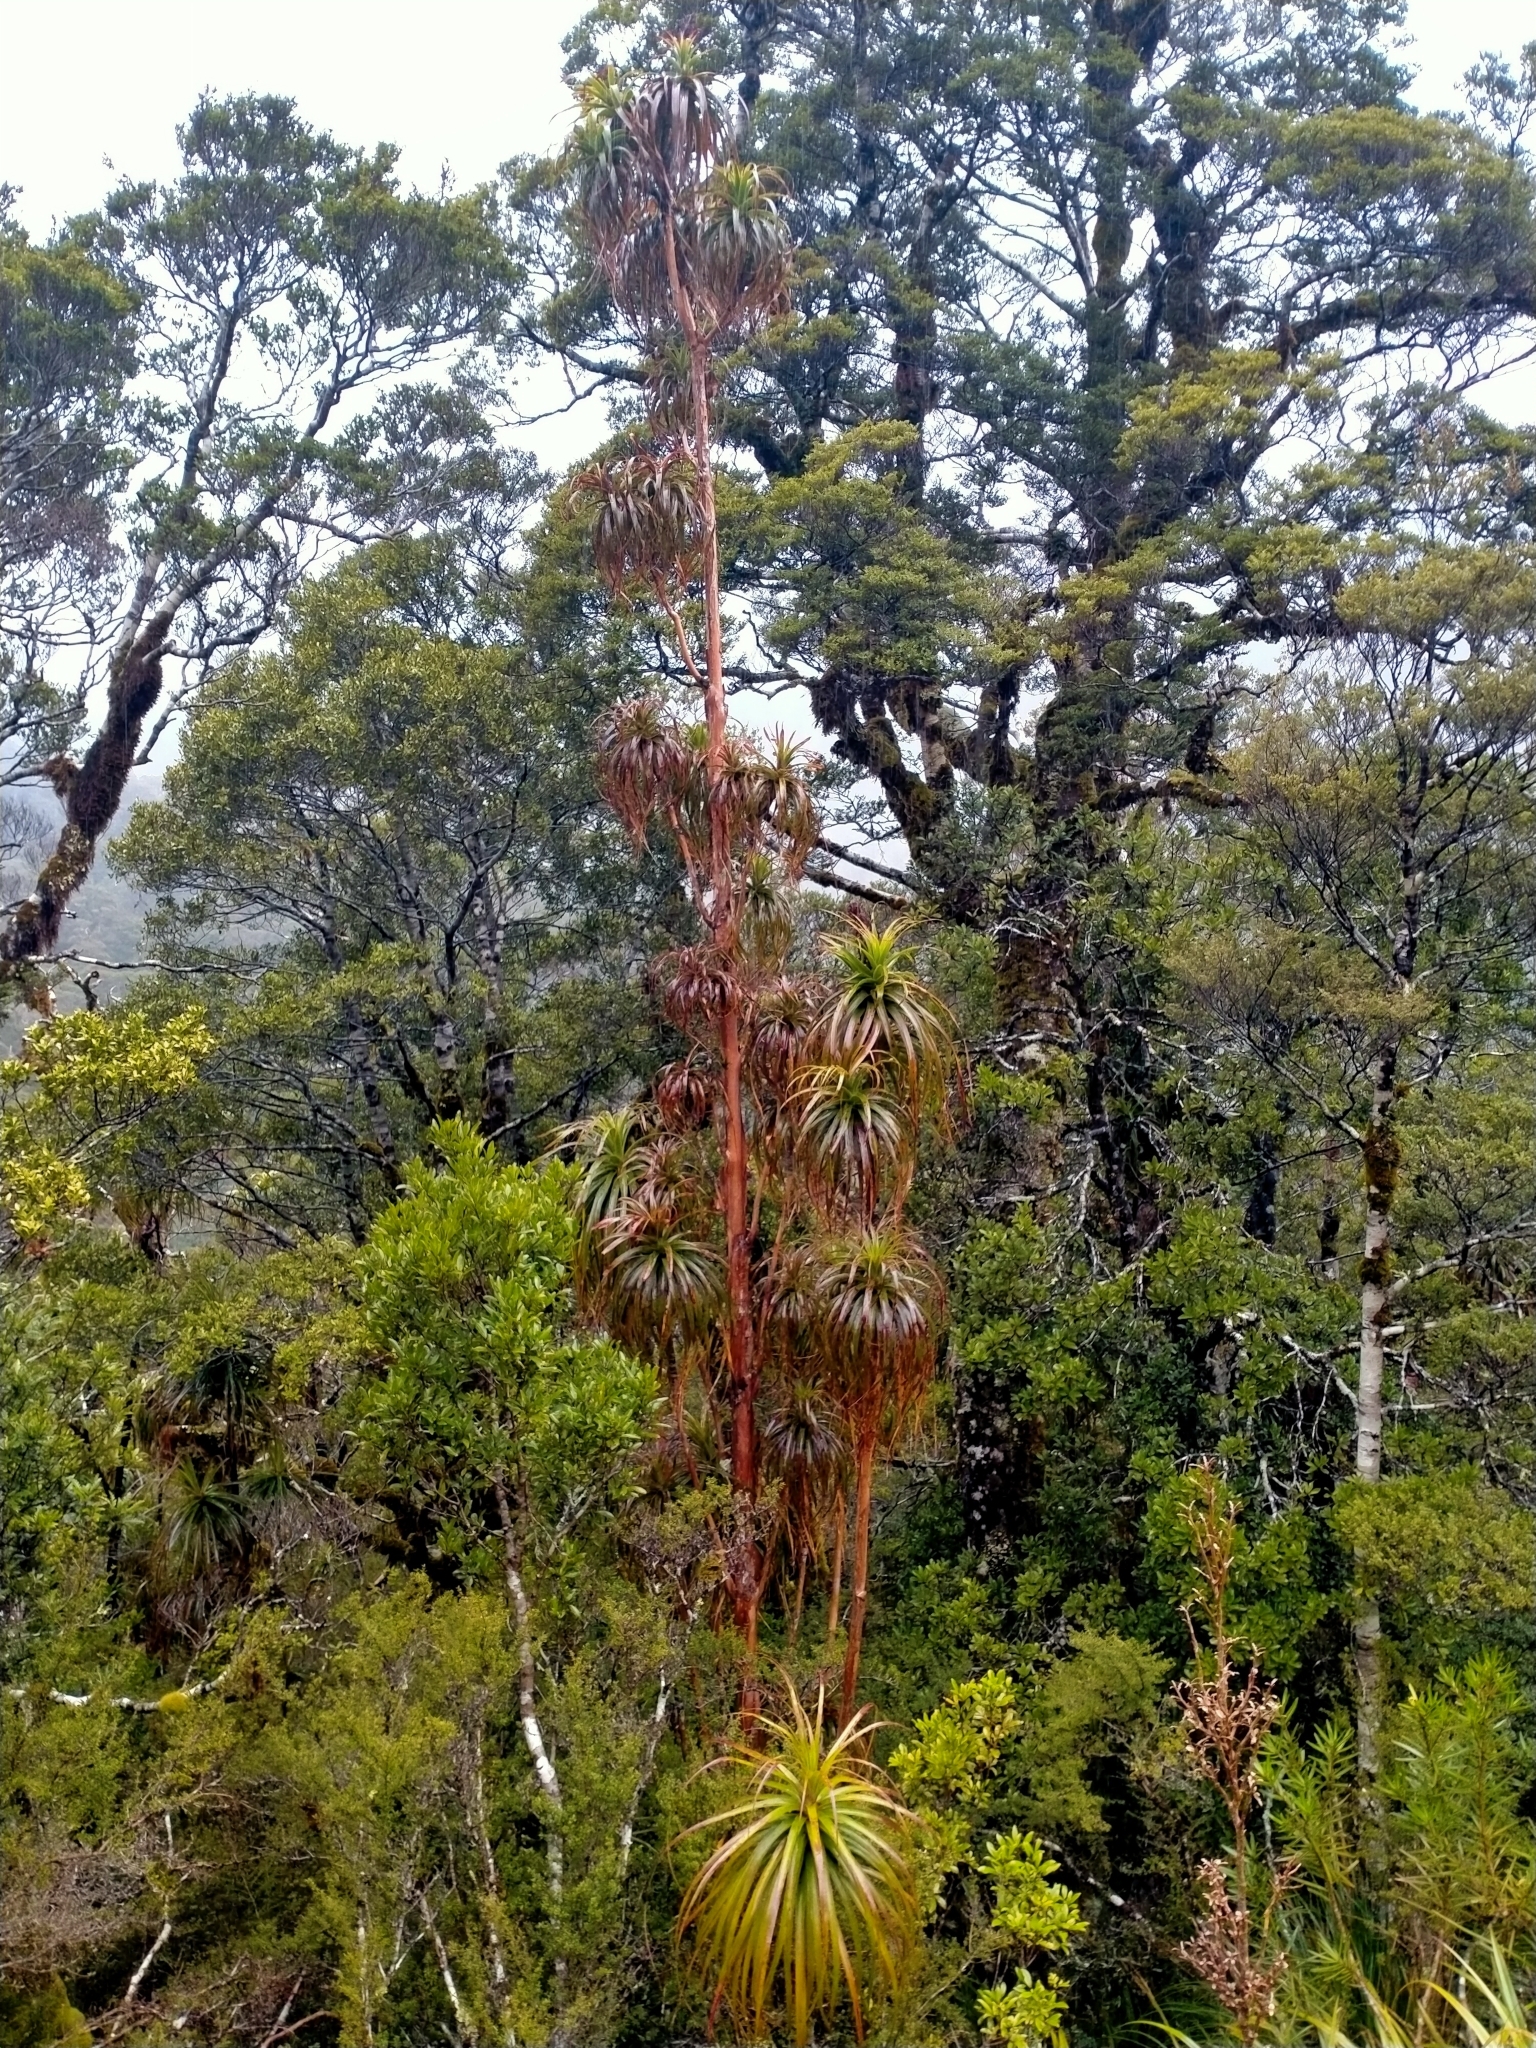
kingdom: Plantae
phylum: Tracheophyta
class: Magnoliopsida
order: Ericales
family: Ericaceae
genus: Dracophyllum
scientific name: Dracophyllum elegantissimum
